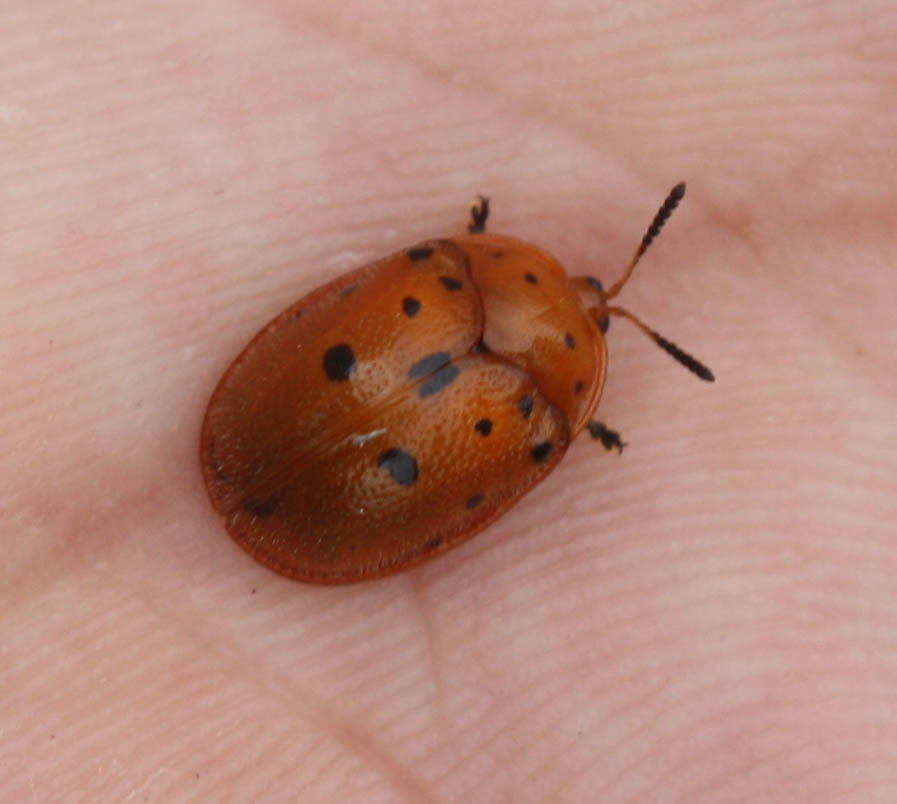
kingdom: Animalia
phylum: Arthropoda
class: Insecta
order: Coleoptera
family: Chrysomelidae
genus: Chelymorpha
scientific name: Chelymorpha phytophagica
